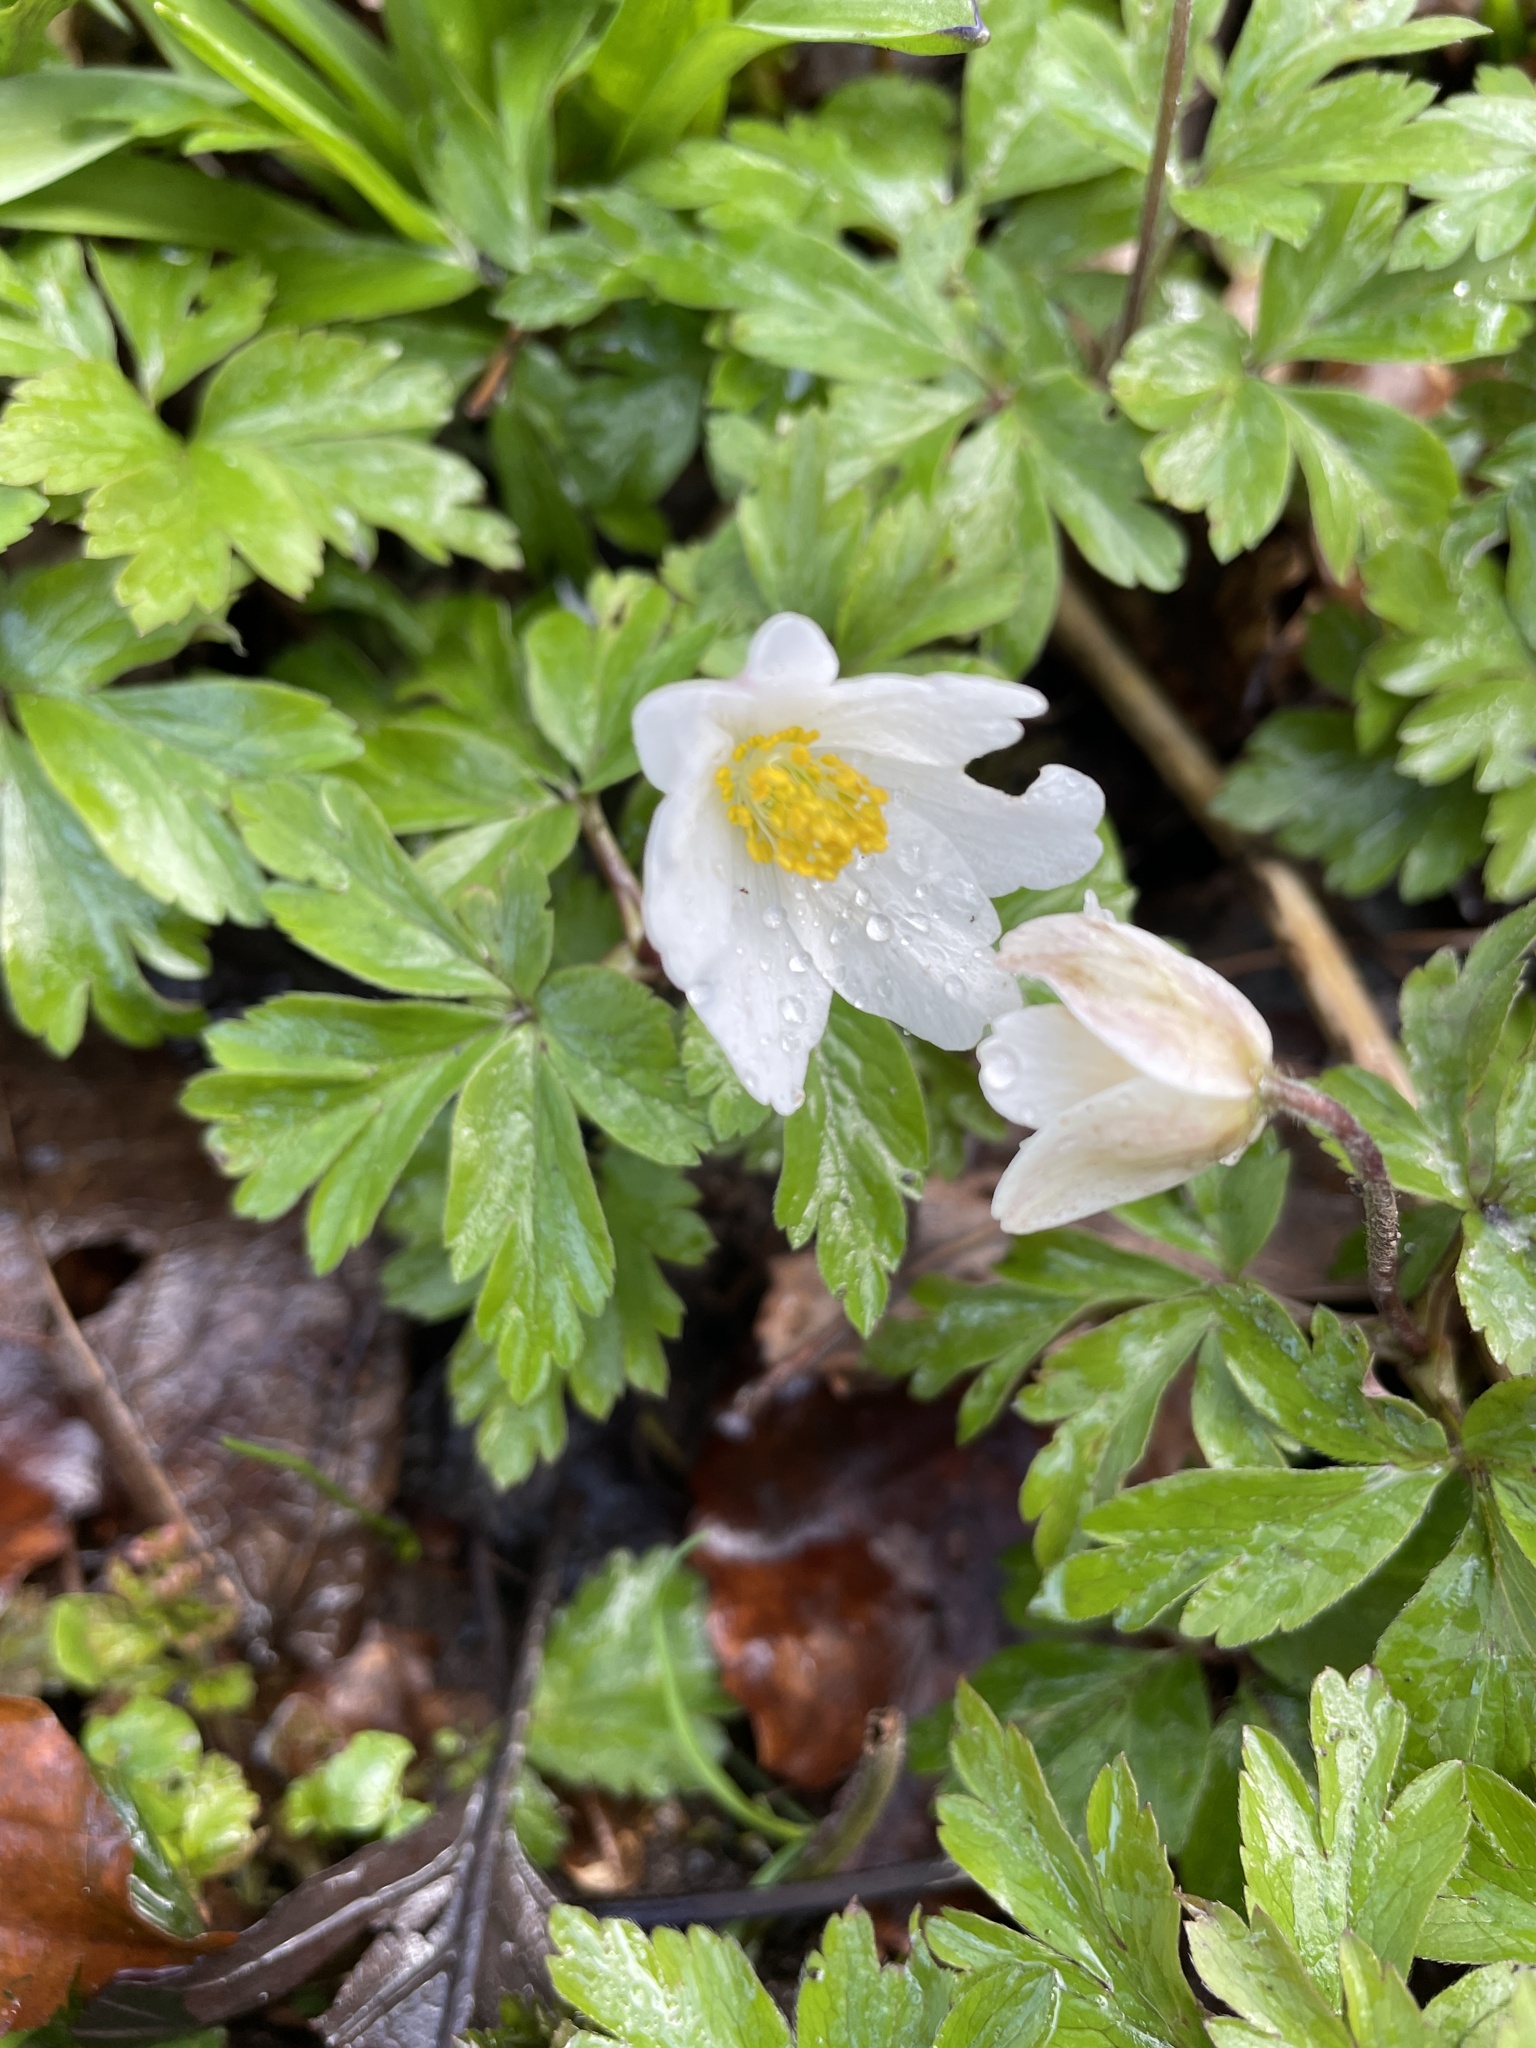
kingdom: Plantae
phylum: Tracheophyta
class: Magnoliopsida
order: Ranunculales
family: Ranunculaceae
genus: Anemone
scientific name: Anemone nemorosa
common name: Wood anemone
